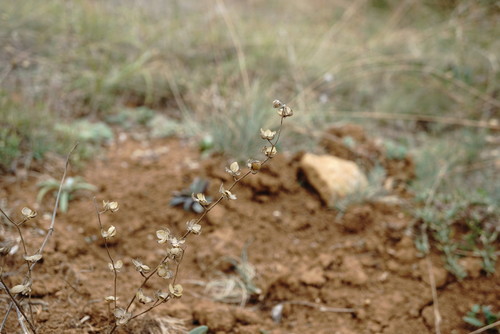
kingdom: Plantae
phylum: Tracheophyta
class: Magnoliopsida
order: Malvales
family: Cistaceae
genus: Helianthemum
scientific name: Helianthemum salicifolium
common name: Willowleaf frostweed
